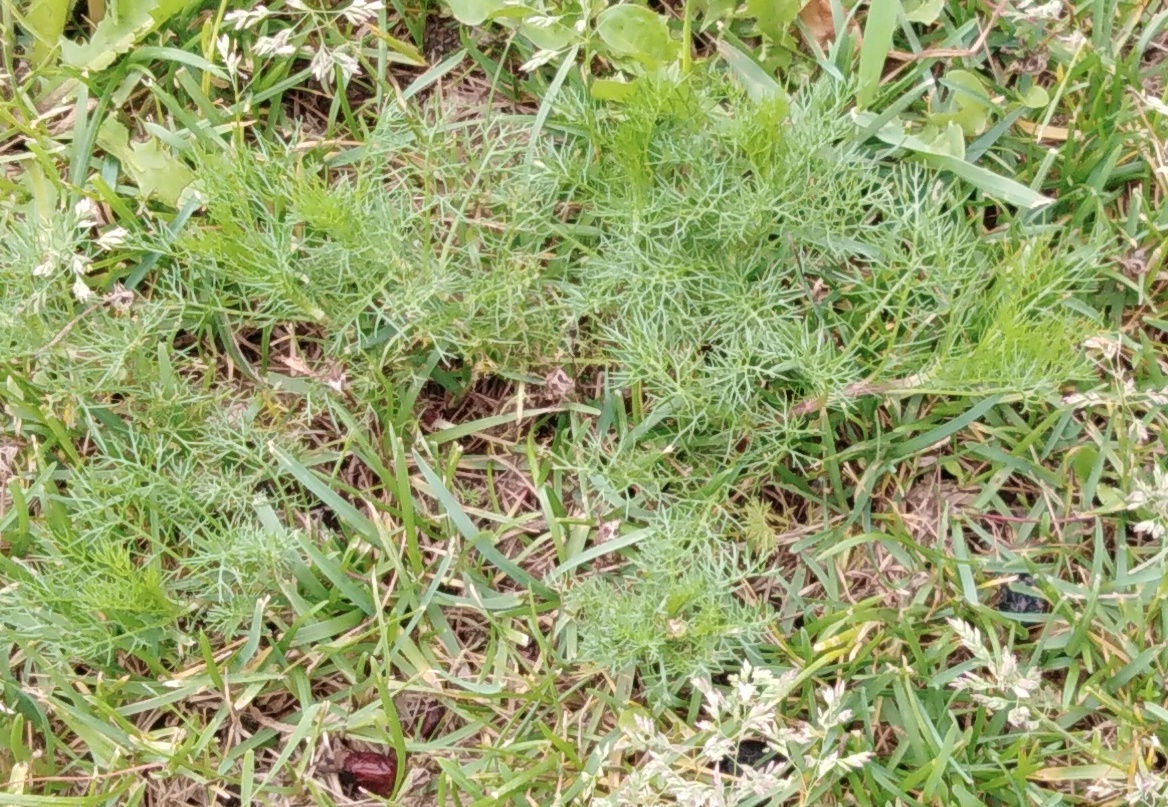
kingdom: Plantae
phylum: Tracheophyta
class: Magnoliopsida
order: Asterales
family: Asteraceae
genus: Tripleurospermum
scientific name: Tripleurospermum inodorum
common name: Scentless mayweed
